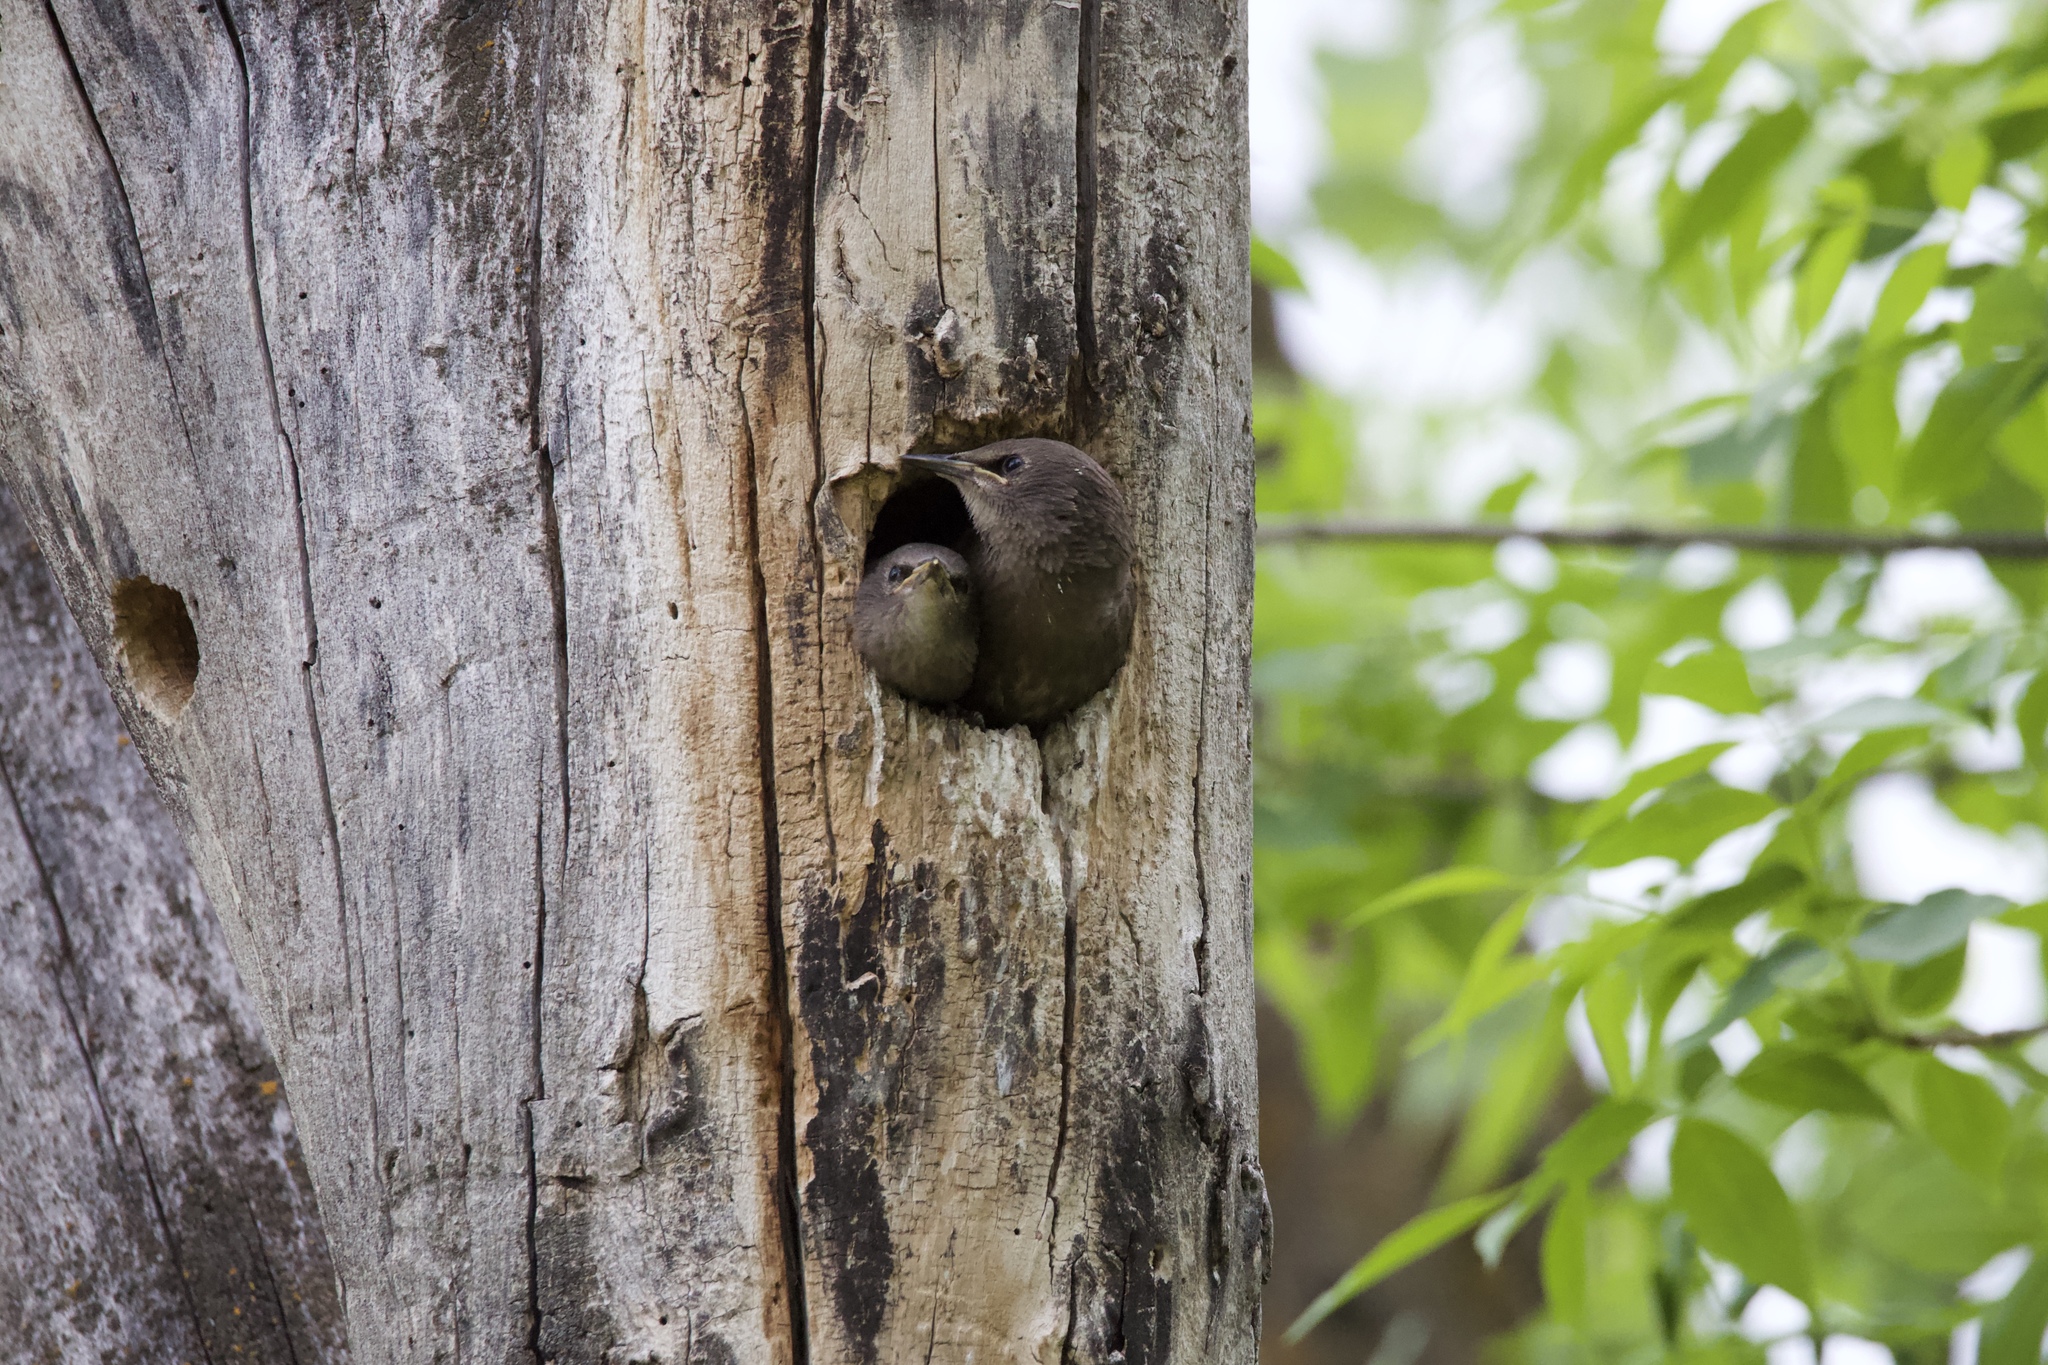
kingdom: Animalia
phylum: Chordata
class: Aves
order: Passeriformes
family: Sturnidae
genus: Sturnus
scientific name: Sturnus vulgaris
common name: Common starling
